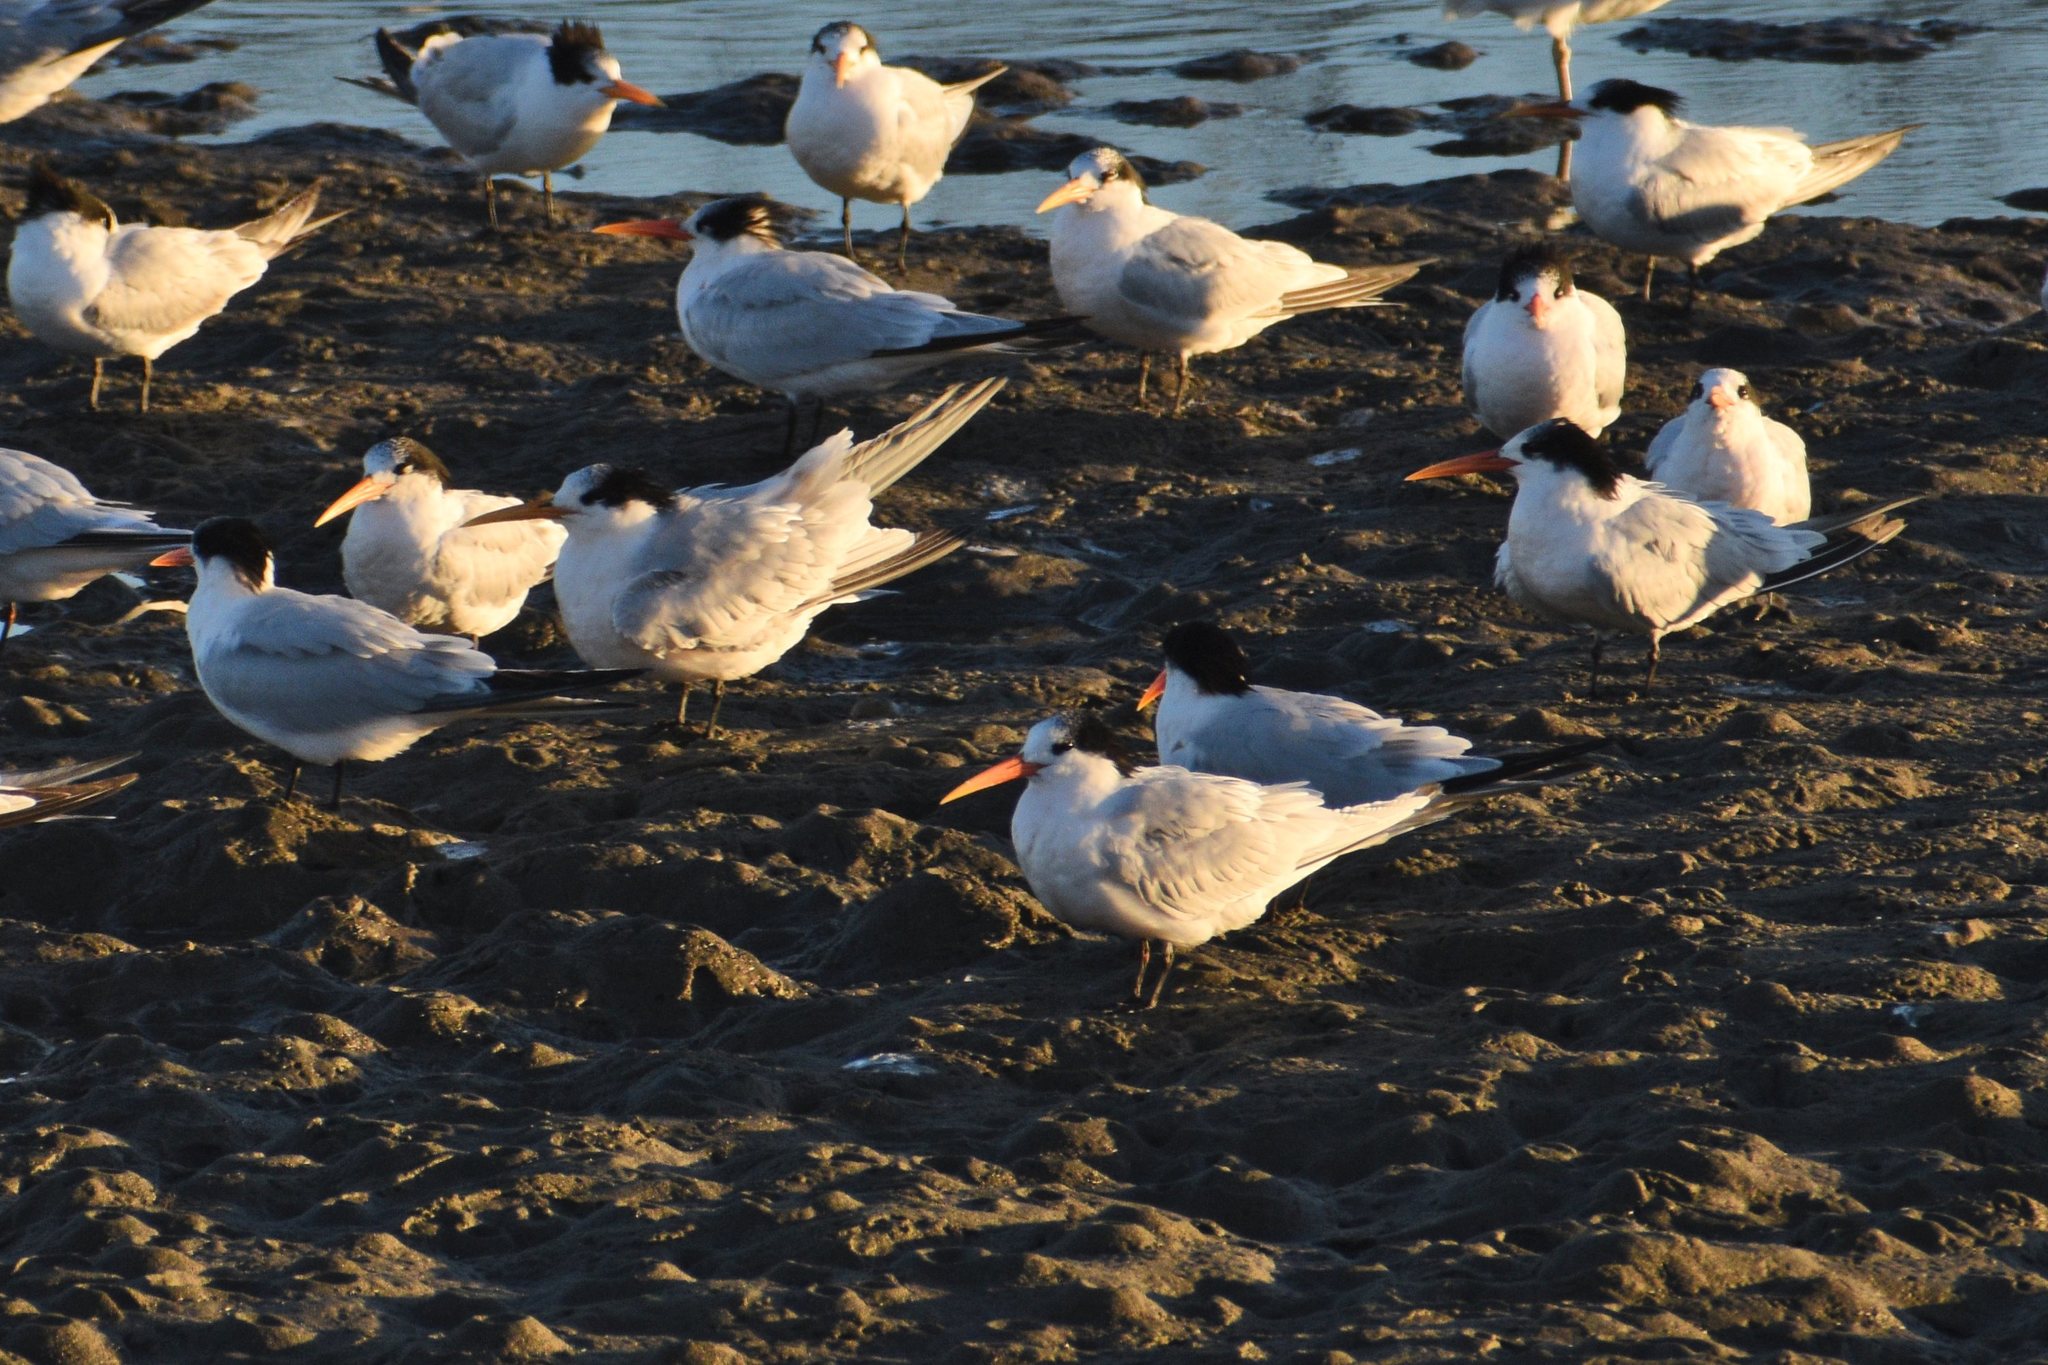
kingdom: Animalia
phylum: Chordata
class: Aves
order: Charadriiformes
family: Laridae
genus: Thalasseus
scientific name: Thalasseus elegans
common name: Elegant tern
